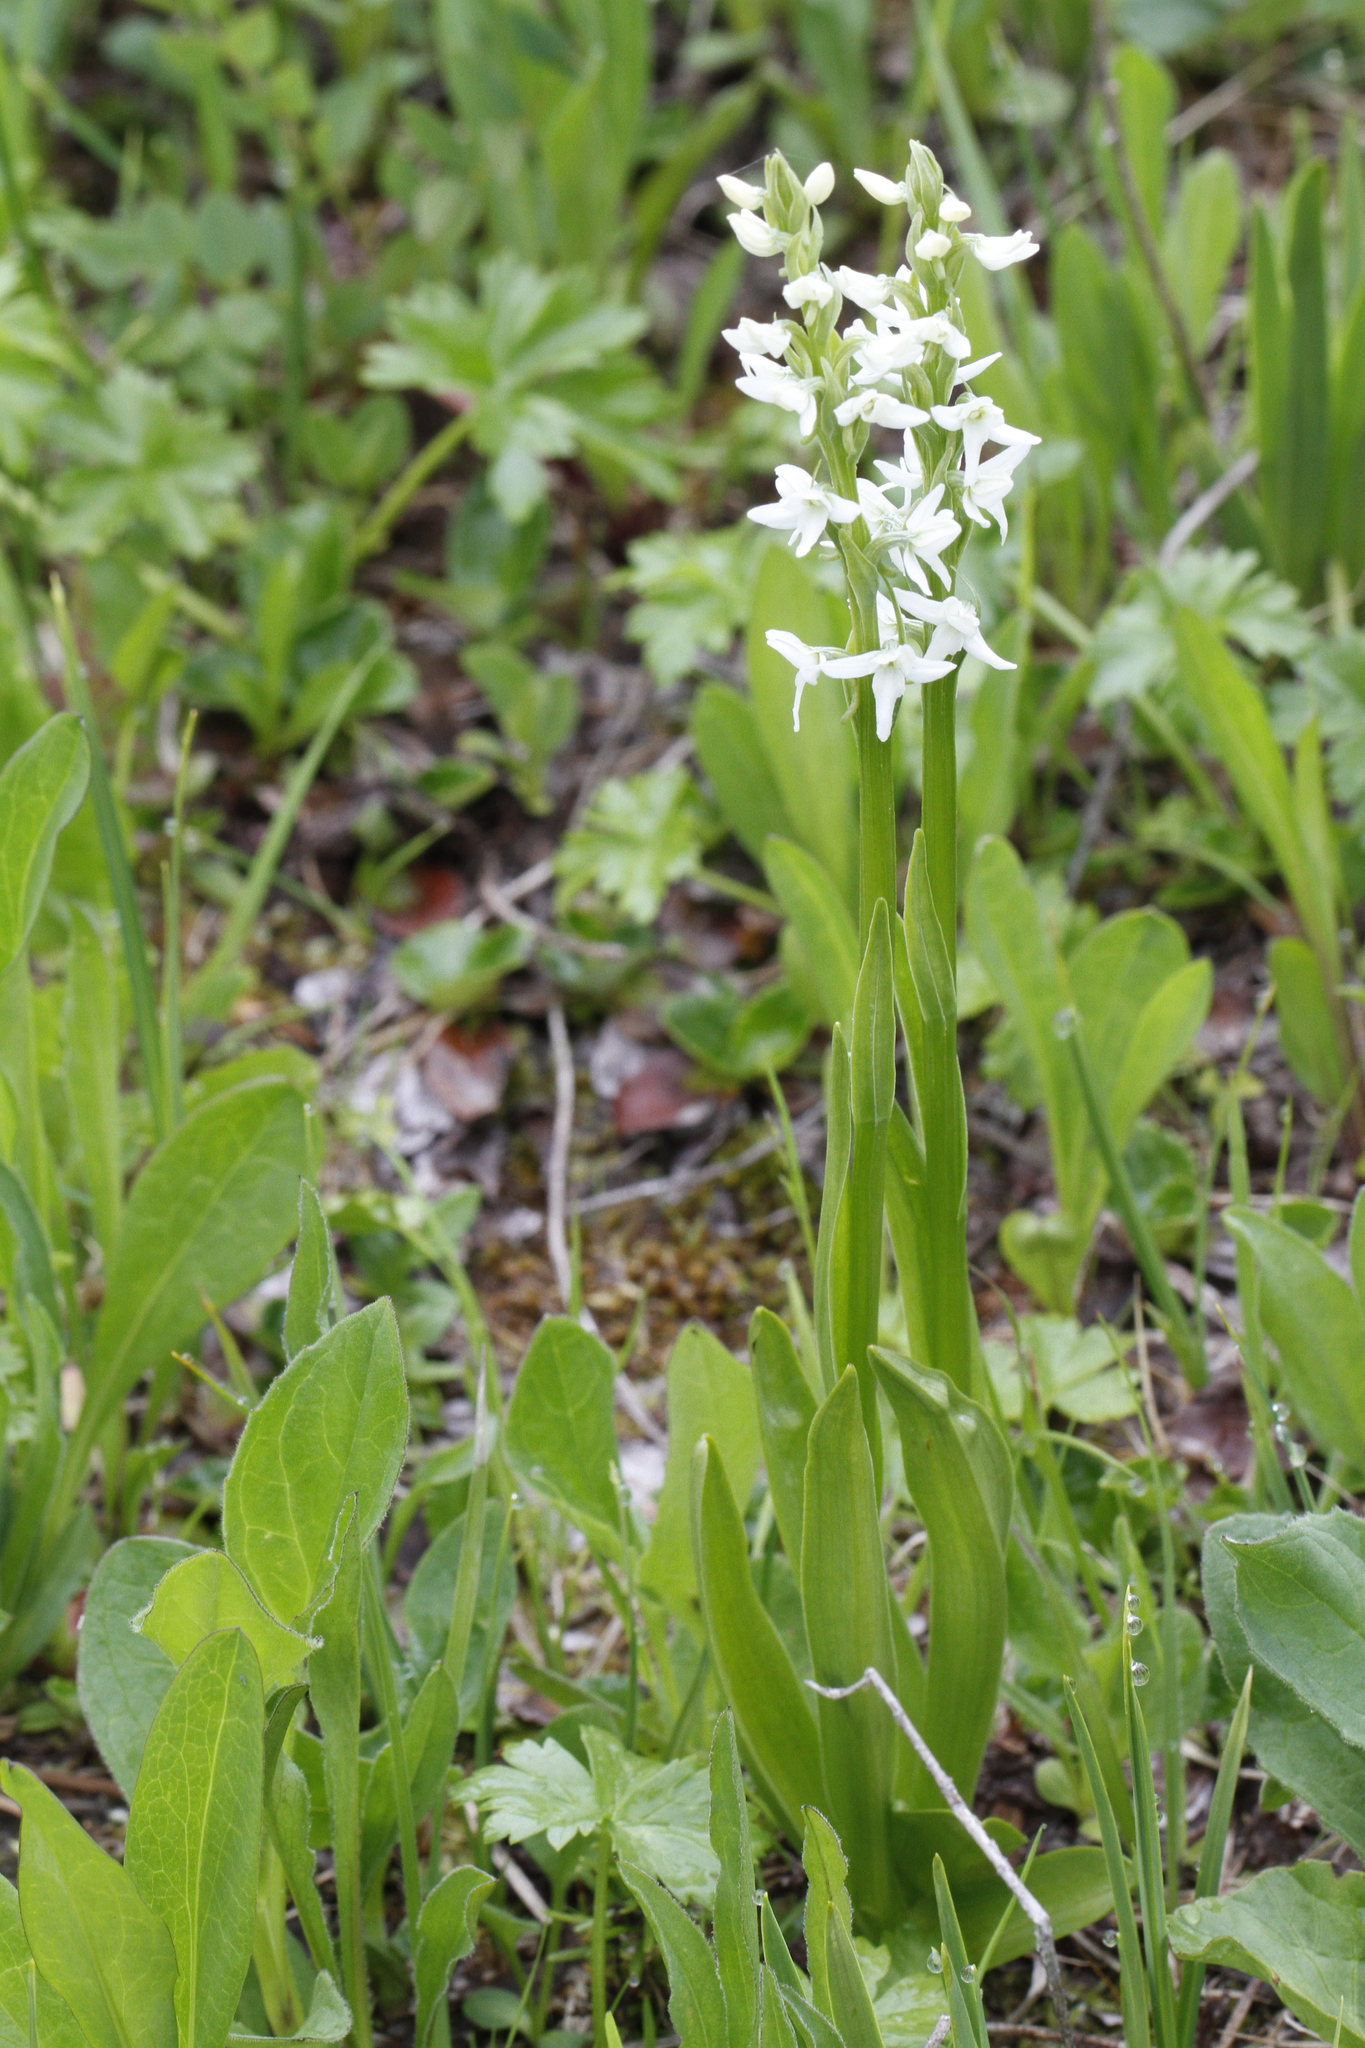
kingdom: Plantae
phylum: Tracheophyta
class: Liliopsida
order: Asparagales
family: Orchidaceae
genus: Platanthera
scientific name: Platanthera dilatata
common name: Bog candles
